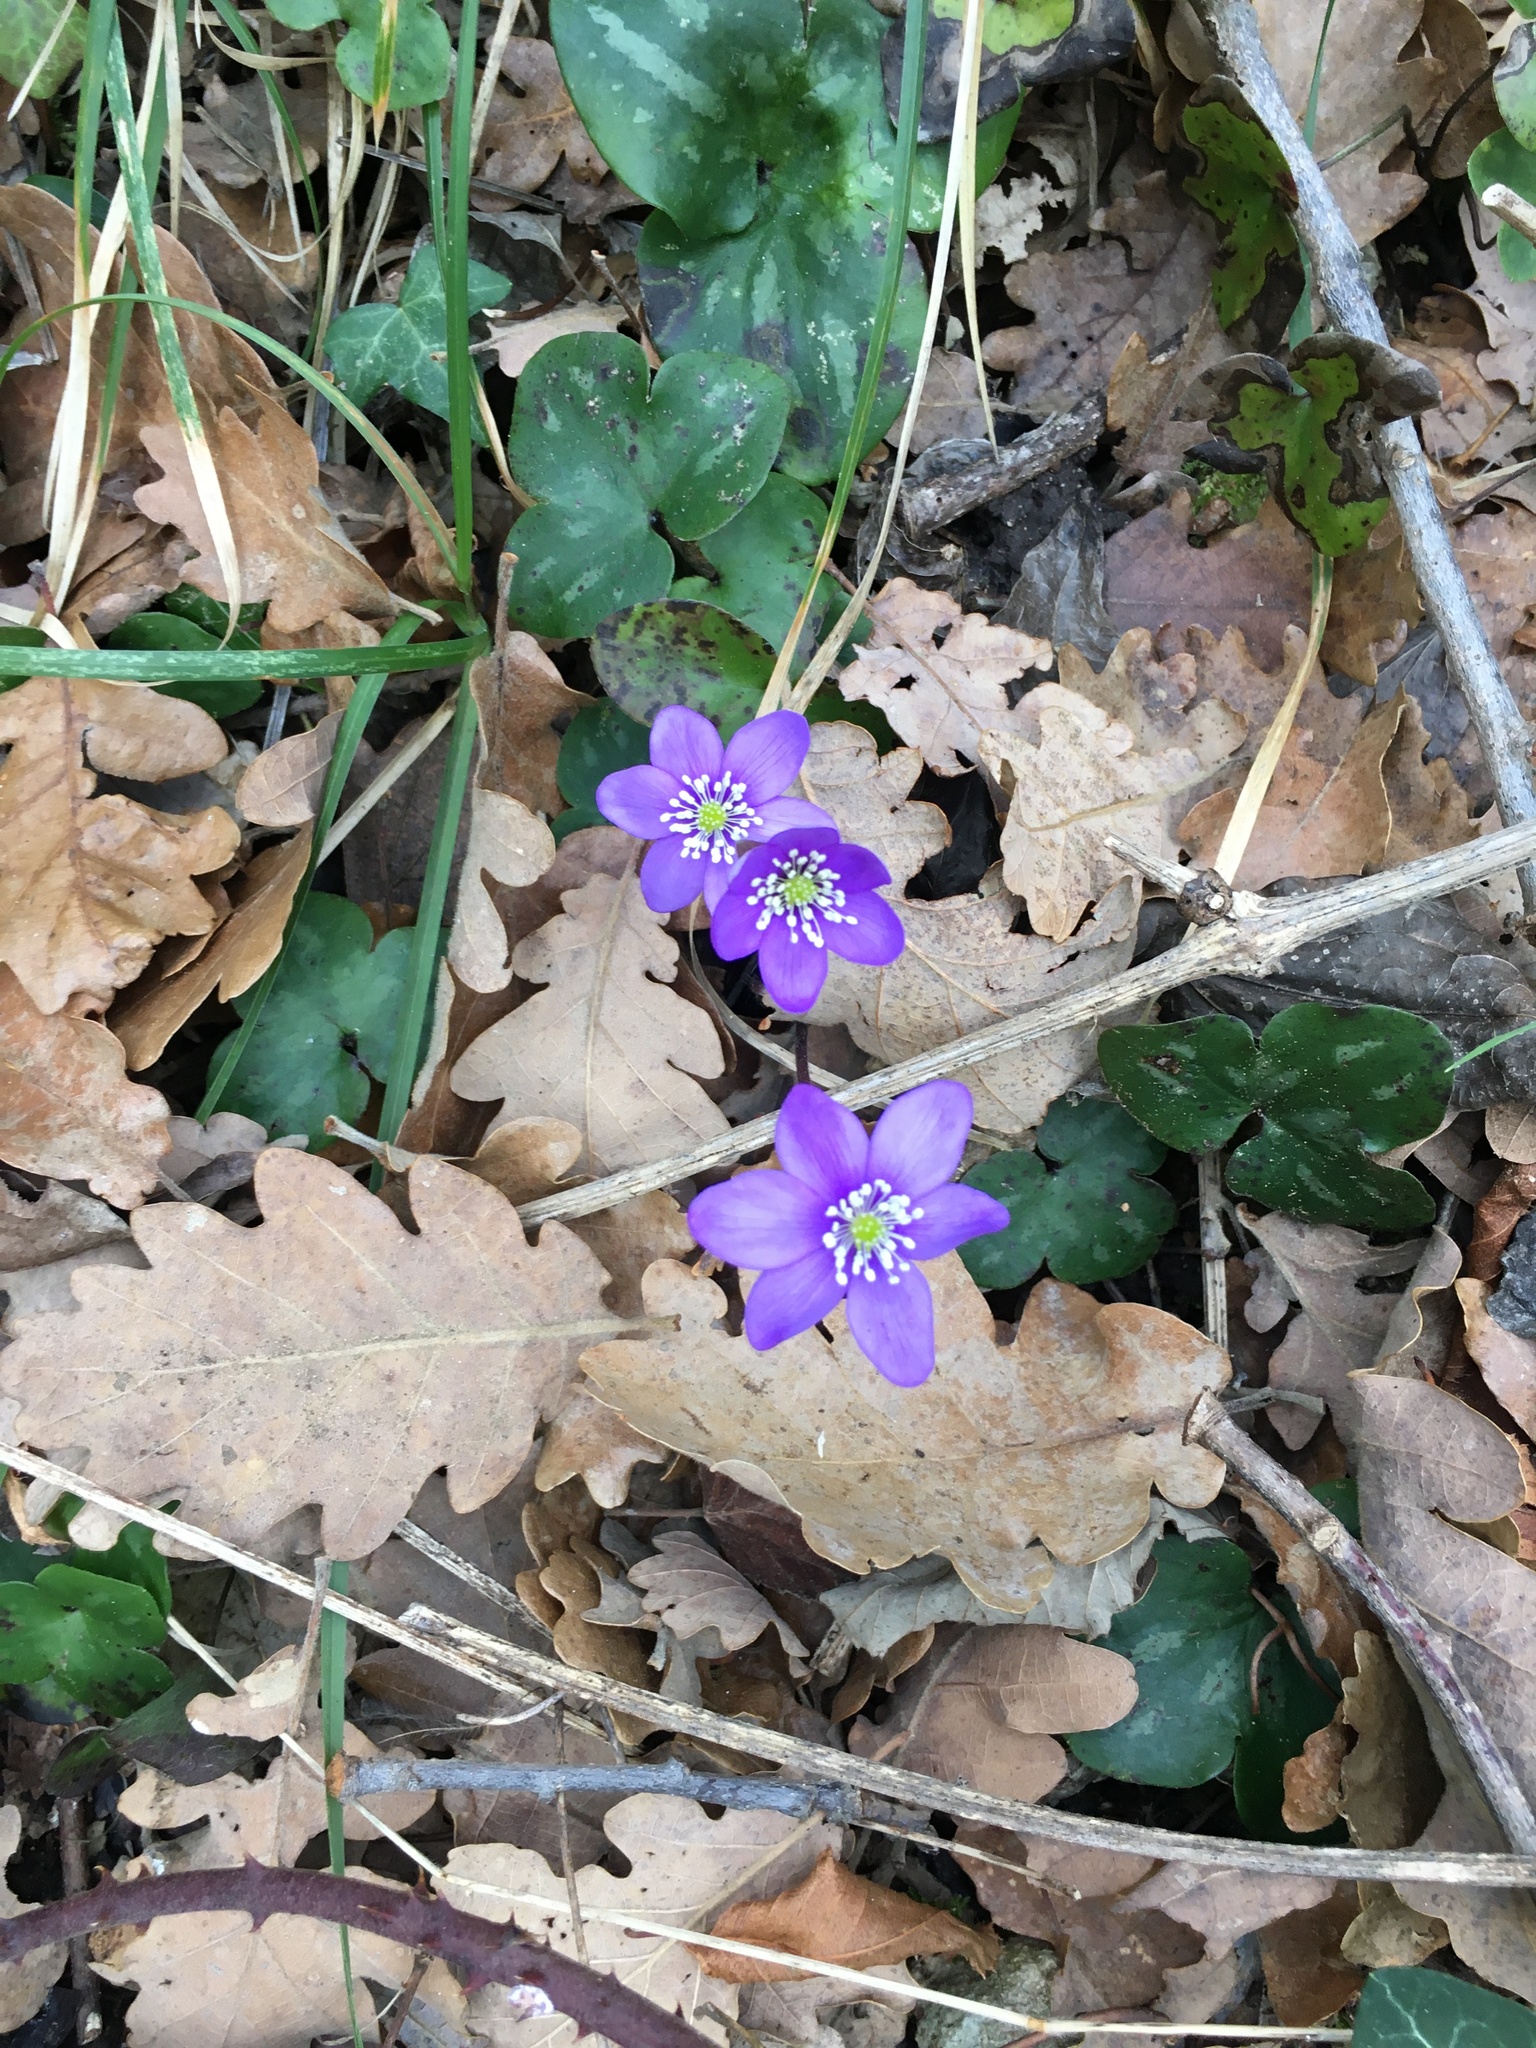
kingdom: Plantae
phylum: Tracheophyta
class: Magnoliopsida
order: Ranunculales
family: Ranunculaceae
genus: Hepatica
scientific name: Hepatica nobilis
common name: Liverleaf
